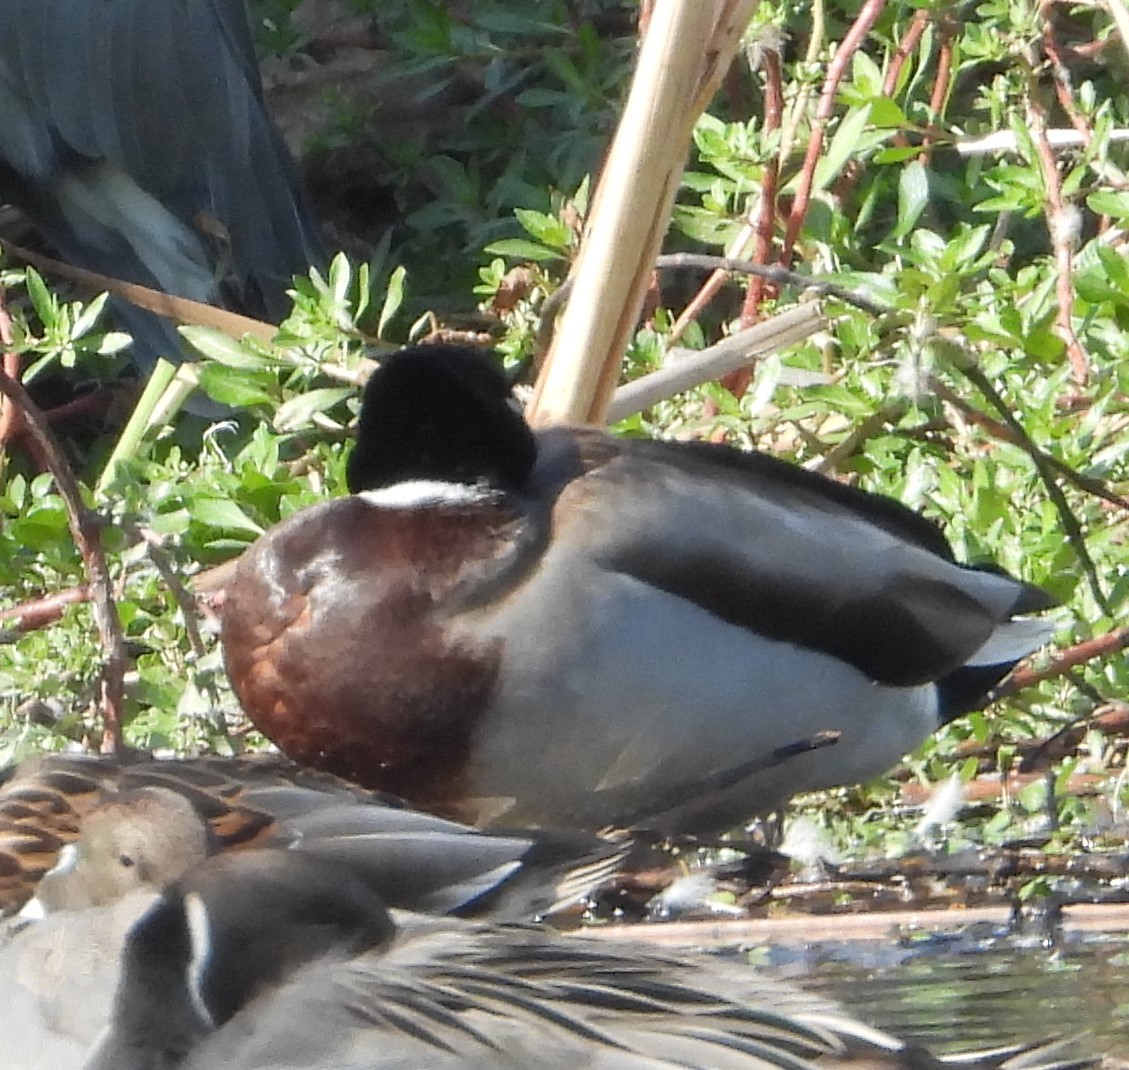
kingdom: Animalia
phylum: Chordata
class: Aves
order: Anseriformes
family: Anatidae
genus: Anas
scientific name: Anas platyrhynchos
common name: Mallard
